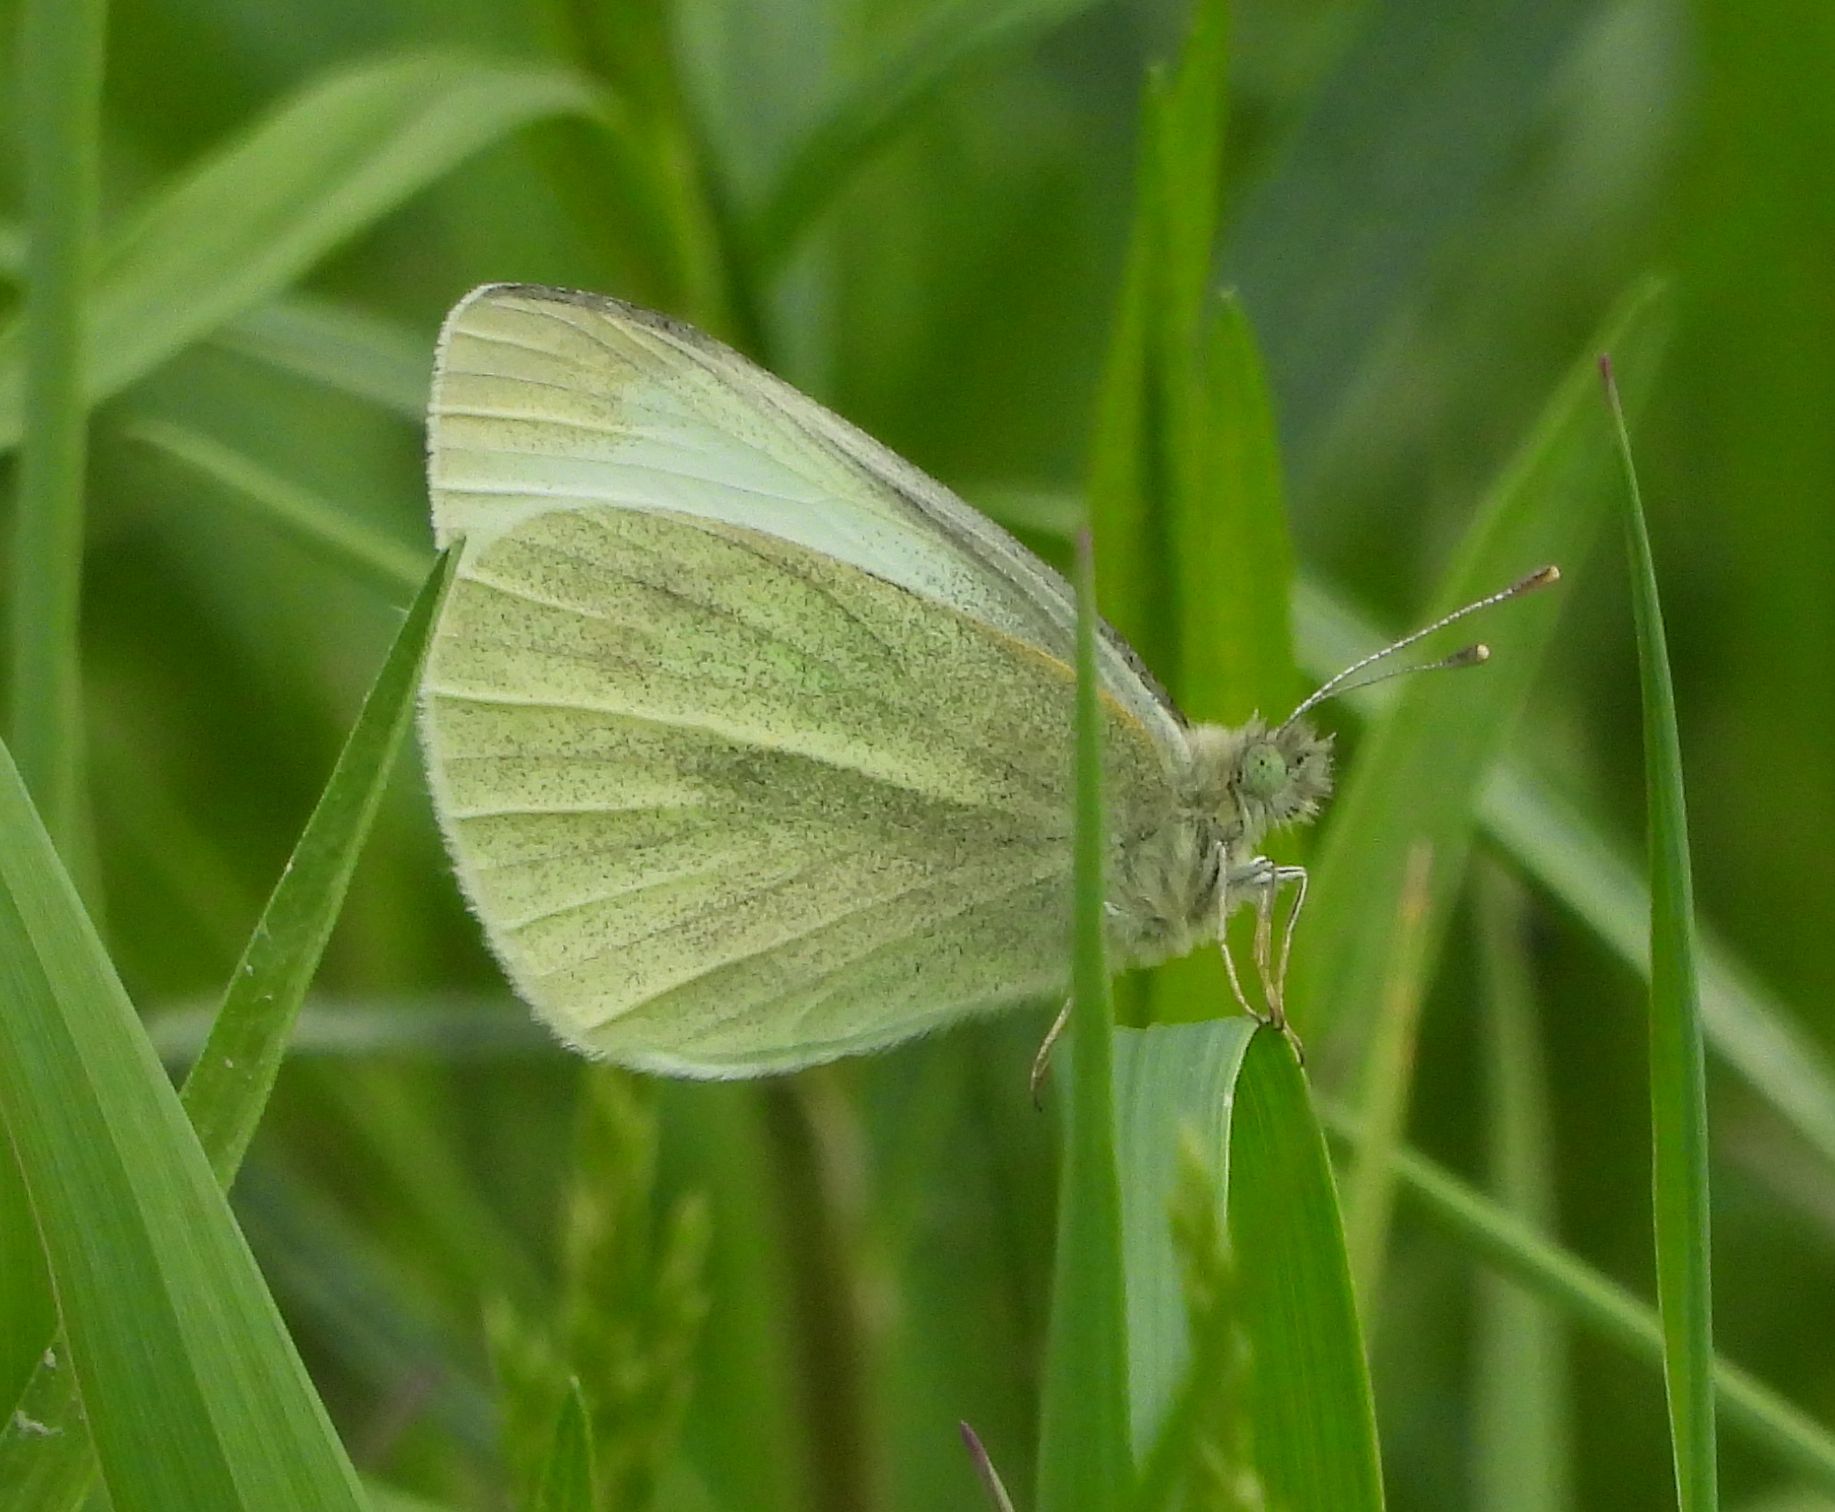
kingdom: Animalia
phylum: Arthropoda
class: Insecta
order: Lepidoptera
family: Pieridae
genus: Pieris
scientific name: Pieris rapae
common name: Small white
